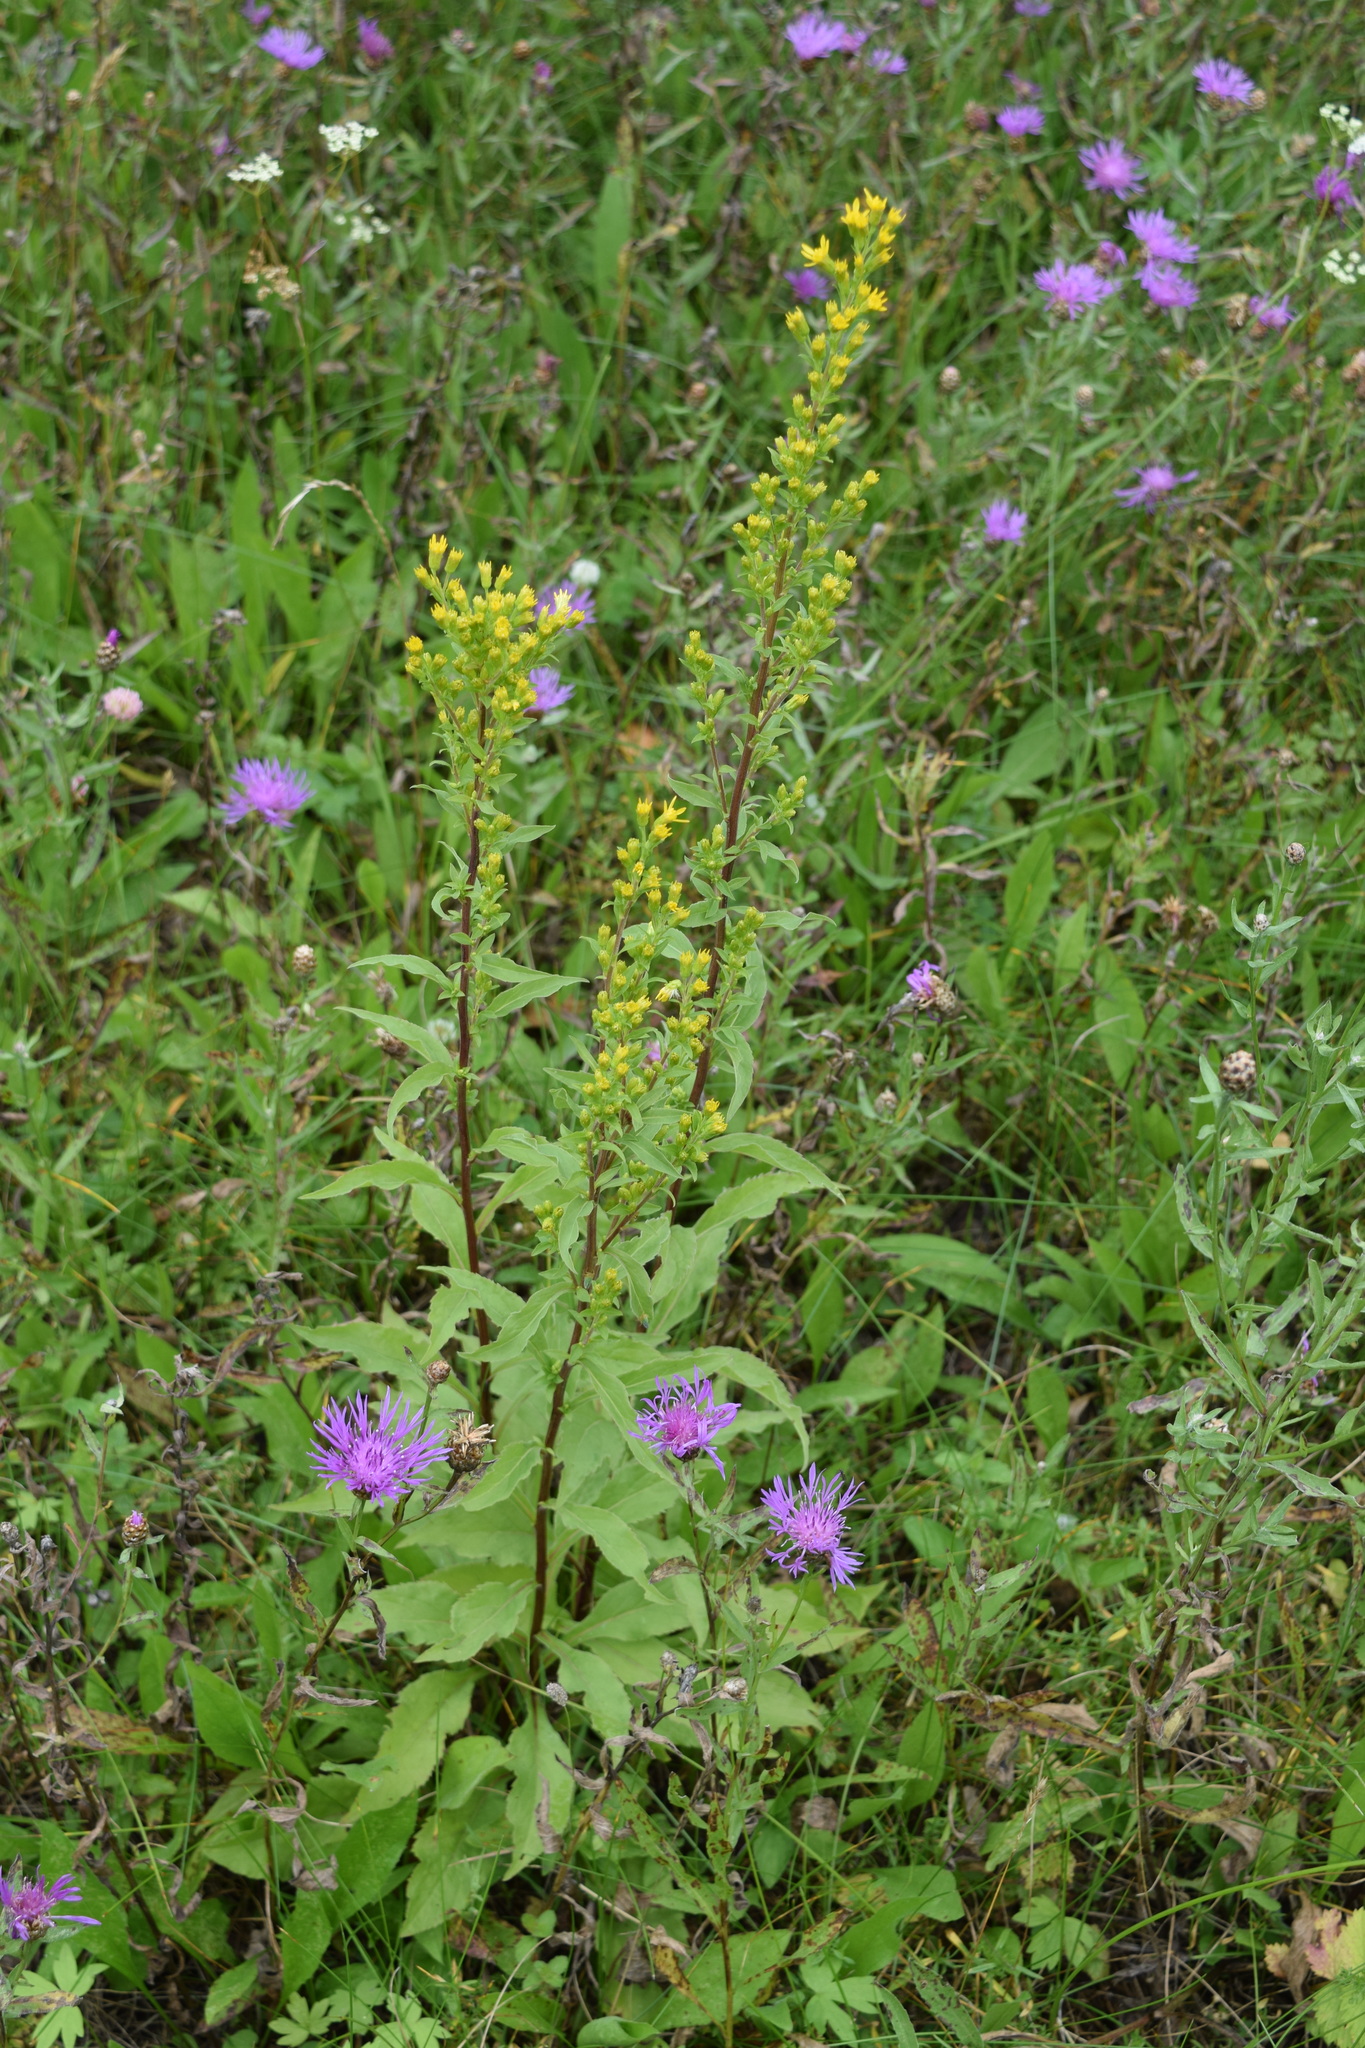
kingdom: Plantae
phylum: Tracheophyta
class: Magnoliopsida
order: Asterales
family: Asteraceae
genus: Solidago
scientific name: Solidago virgaurea
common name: Goldenrod
